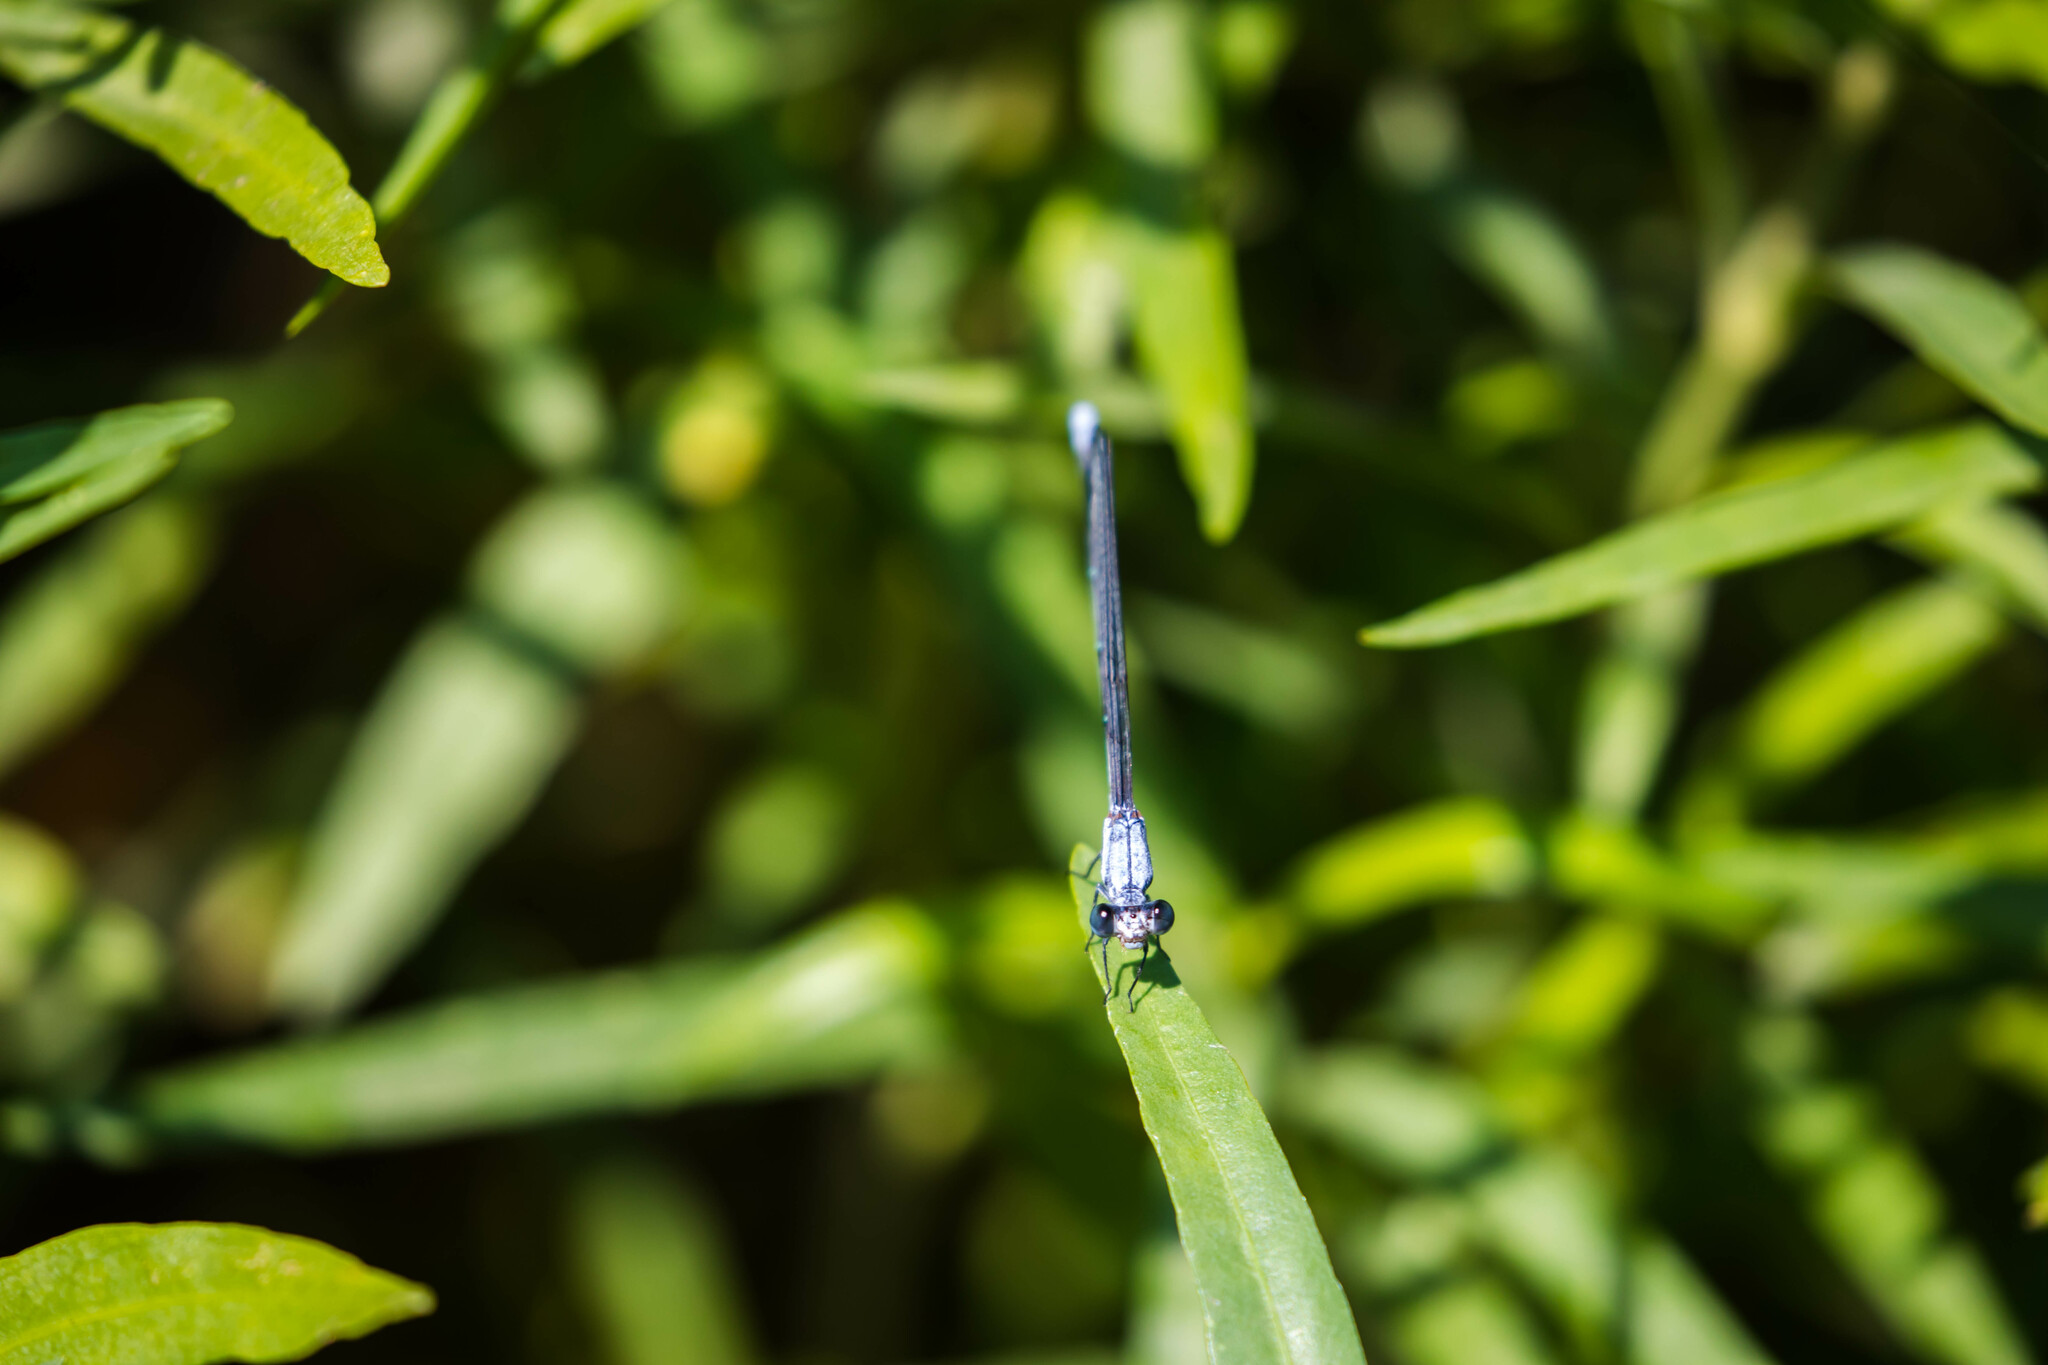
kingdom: Animalia
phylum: Arthropoda
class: Insecta
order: Odonata
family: Coenagrionidae
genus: Argia
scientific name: Argia moesta
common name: Powdered dancer
